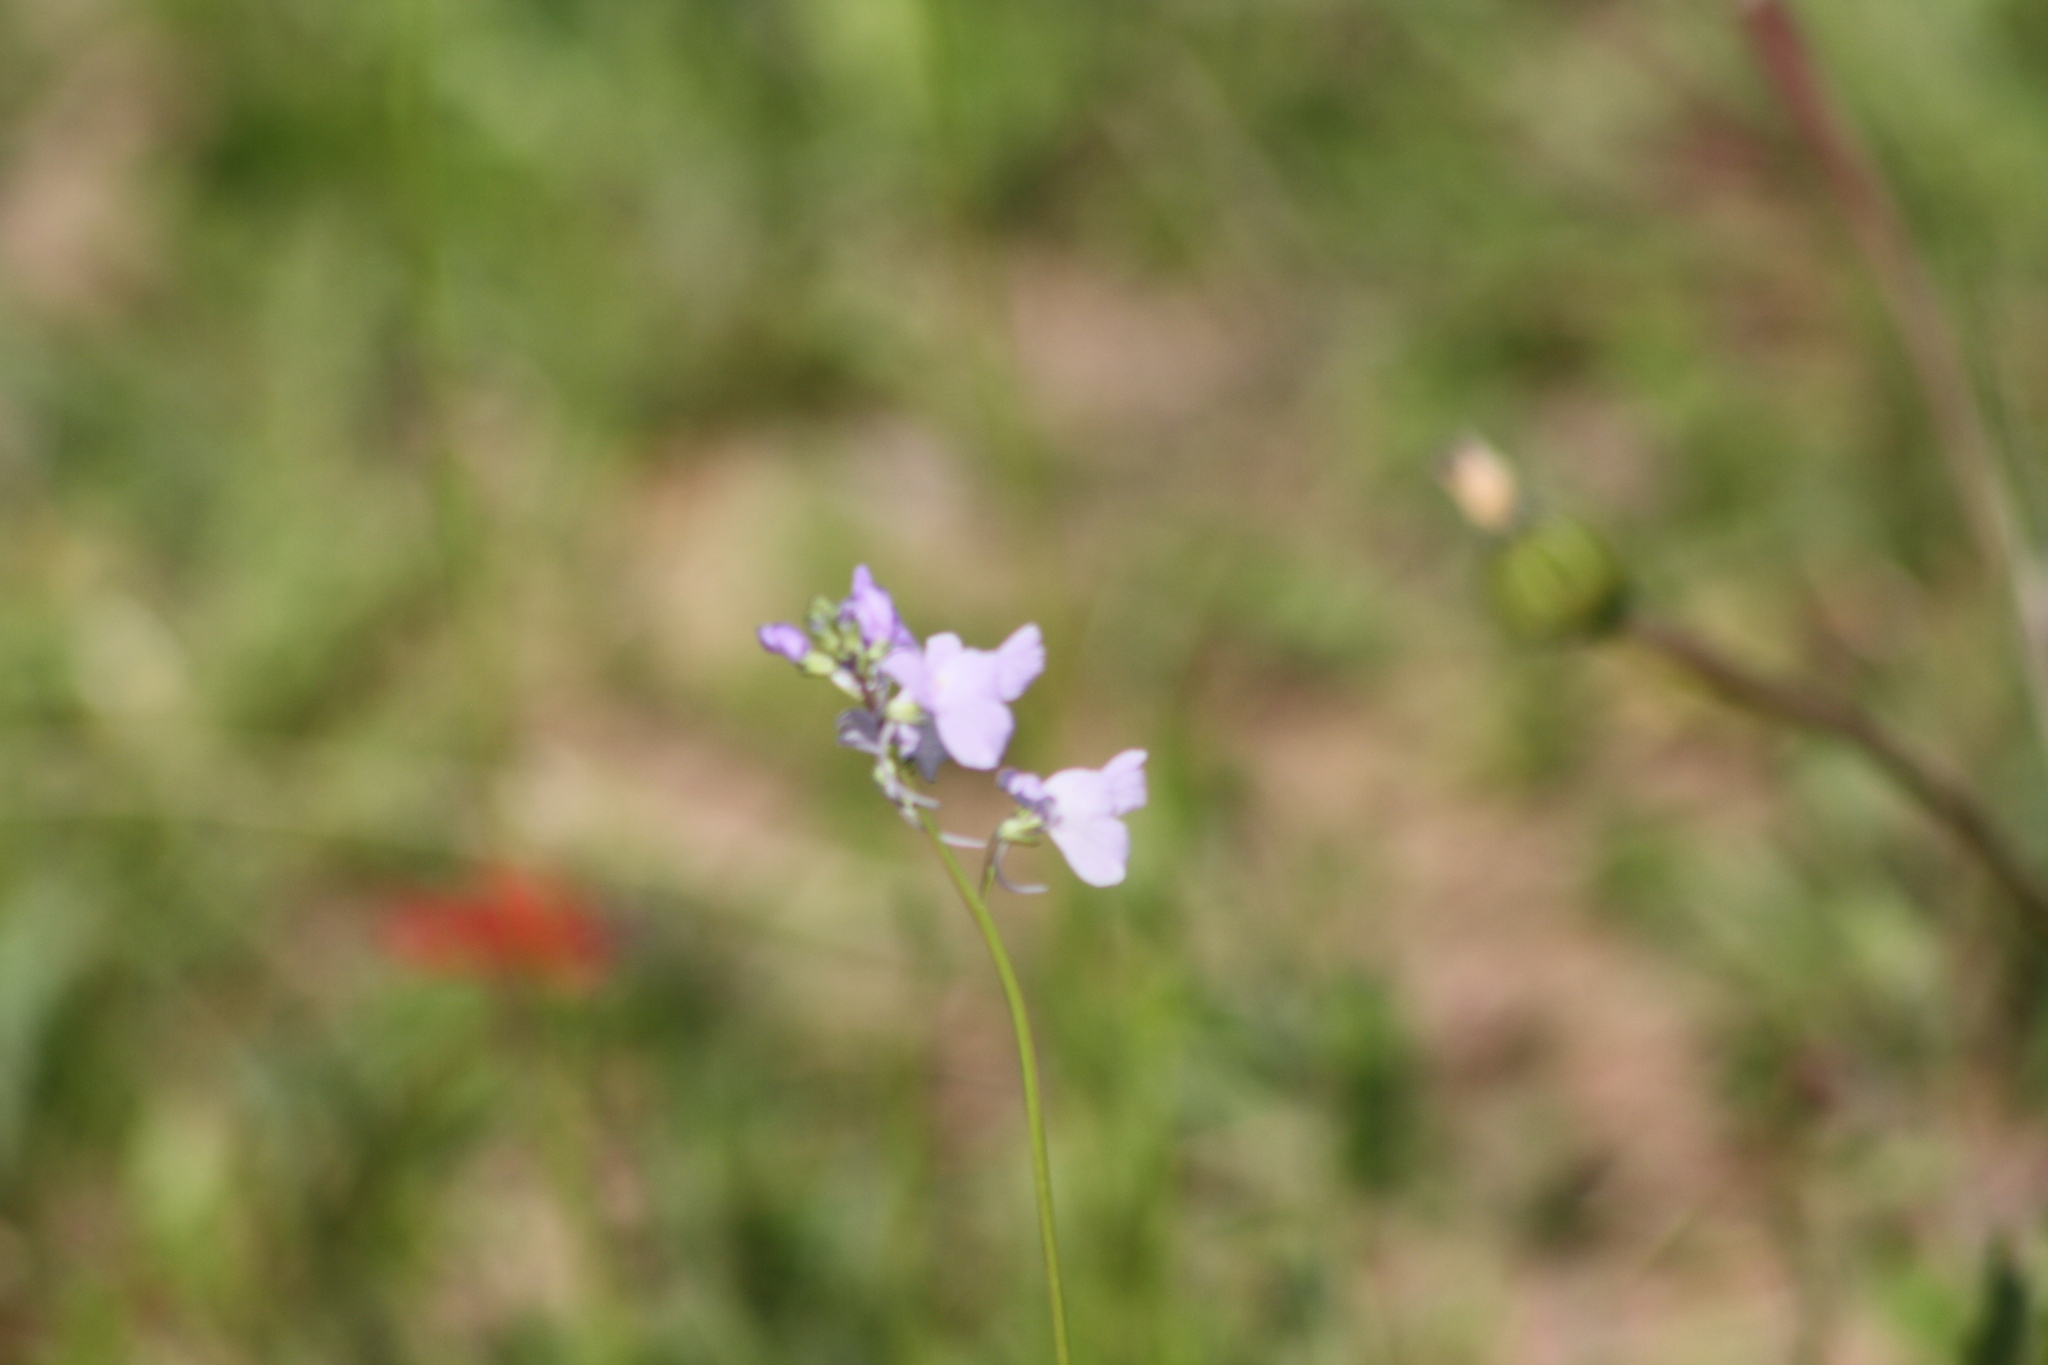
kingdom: Plantae
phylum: Tracheophyta
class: Magnoliopsida
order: Lamiales
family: Plantaginaceae
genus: Nuttallanthus
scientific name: Nuttallanthus texanus
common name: Texas toadflax
